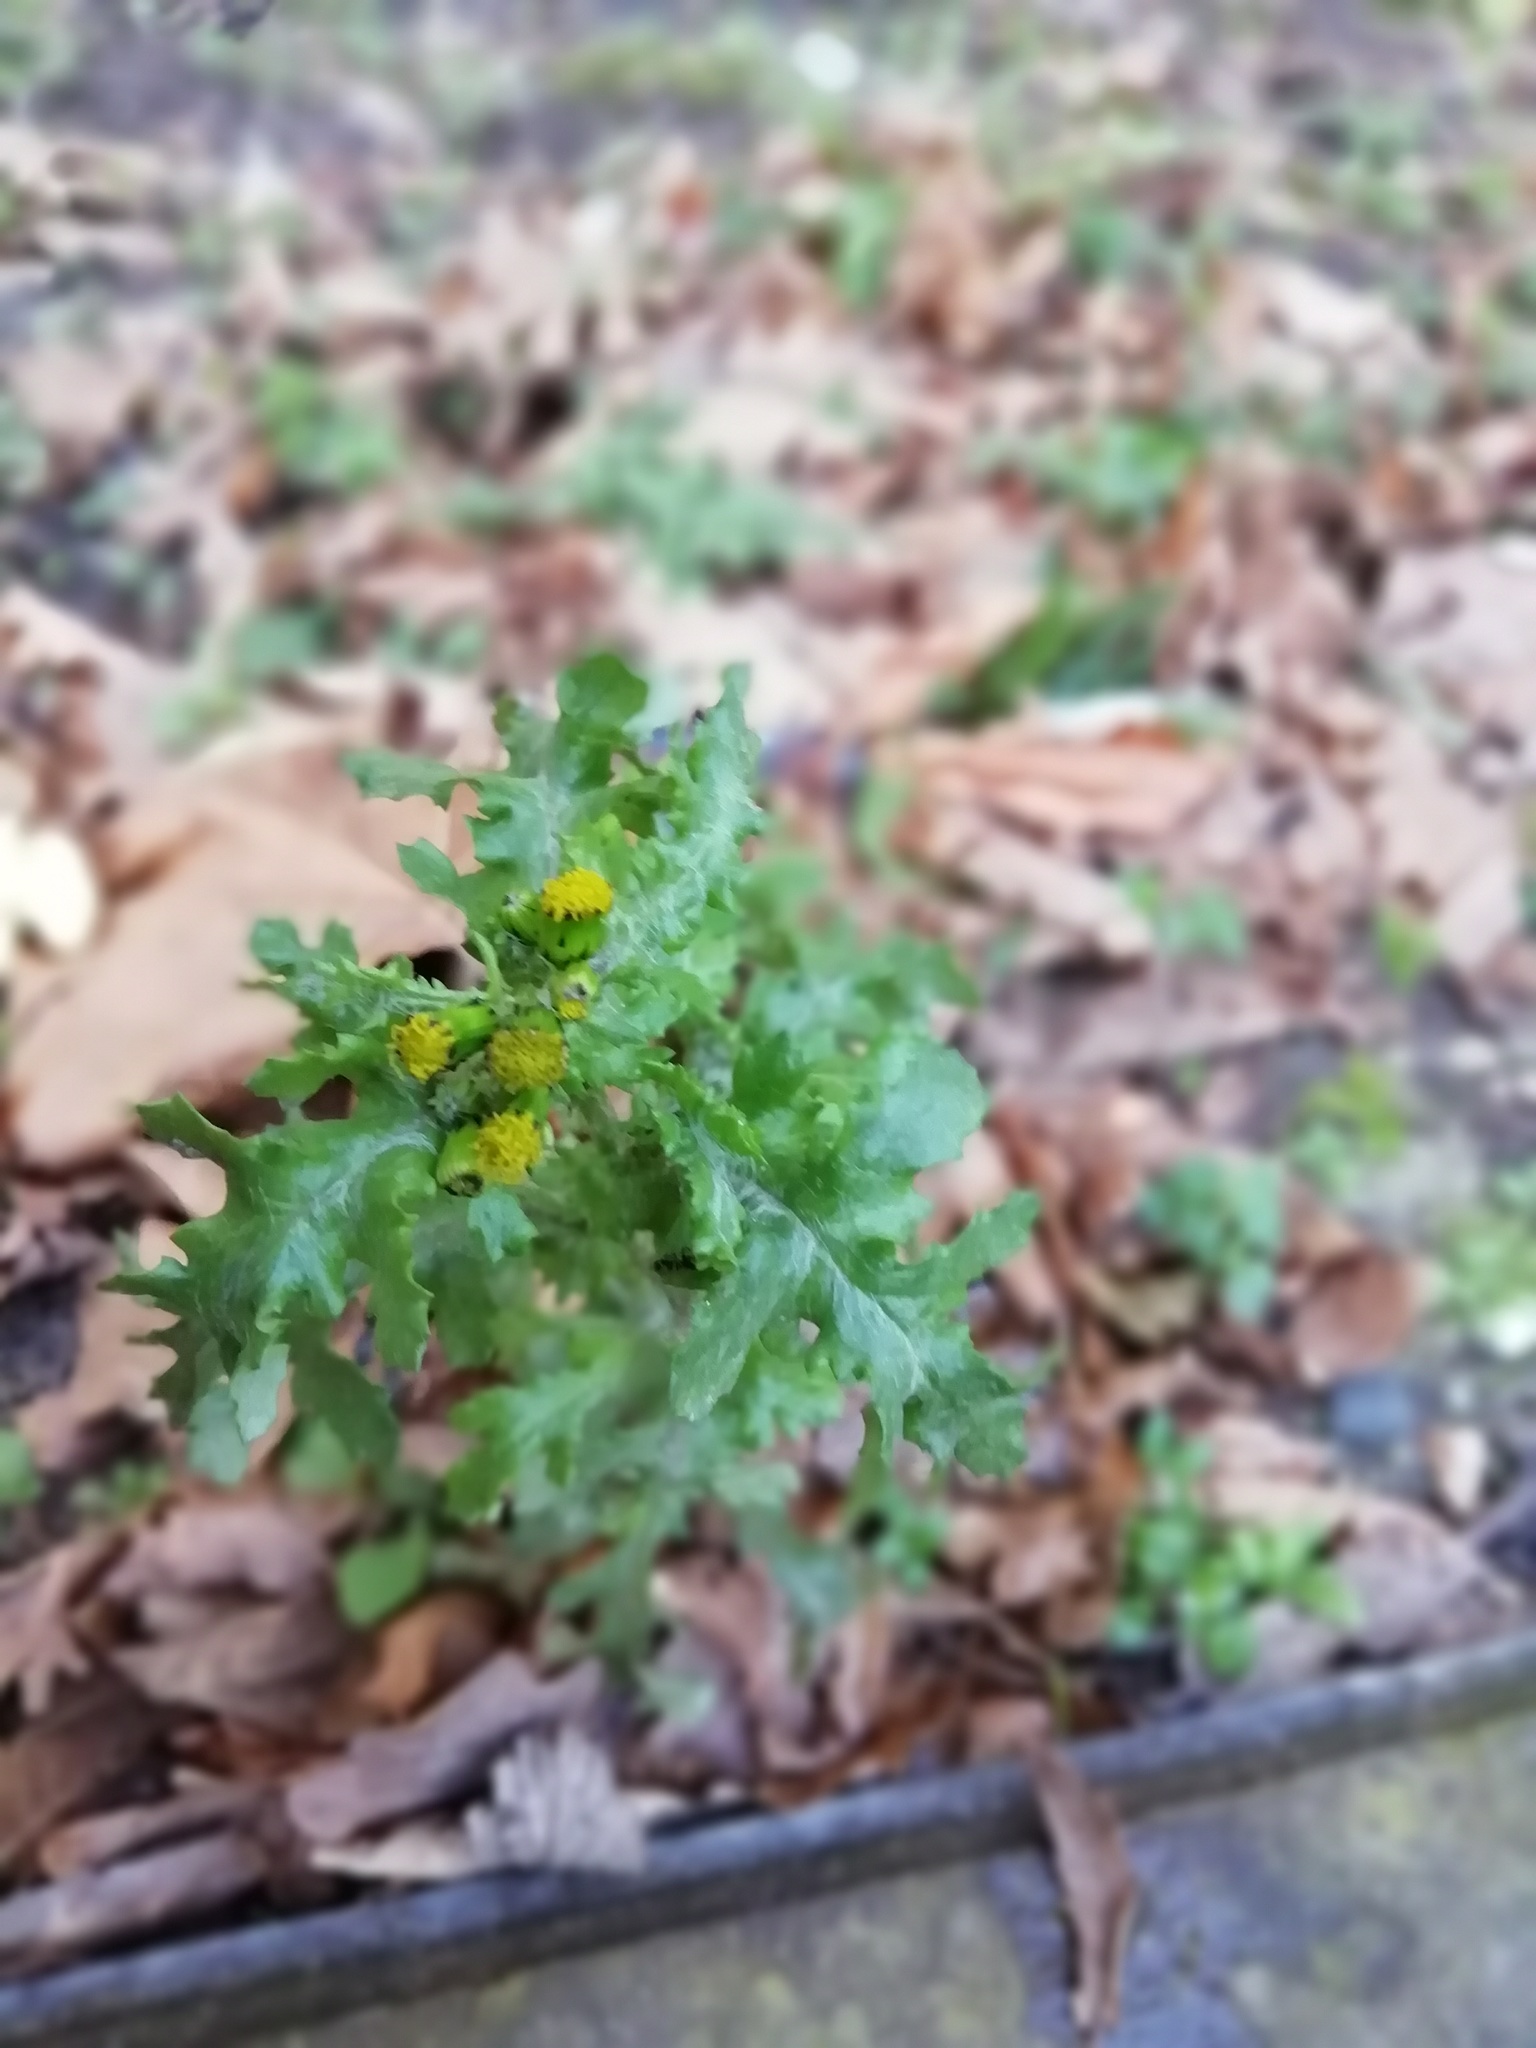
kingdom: Plantae
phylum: Tracheophyta
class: Magnoliopsida
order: Asterales
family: Asteraceae
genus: Senecio
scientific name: Senecio vulgaris
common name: Old-man-in-the-spring
